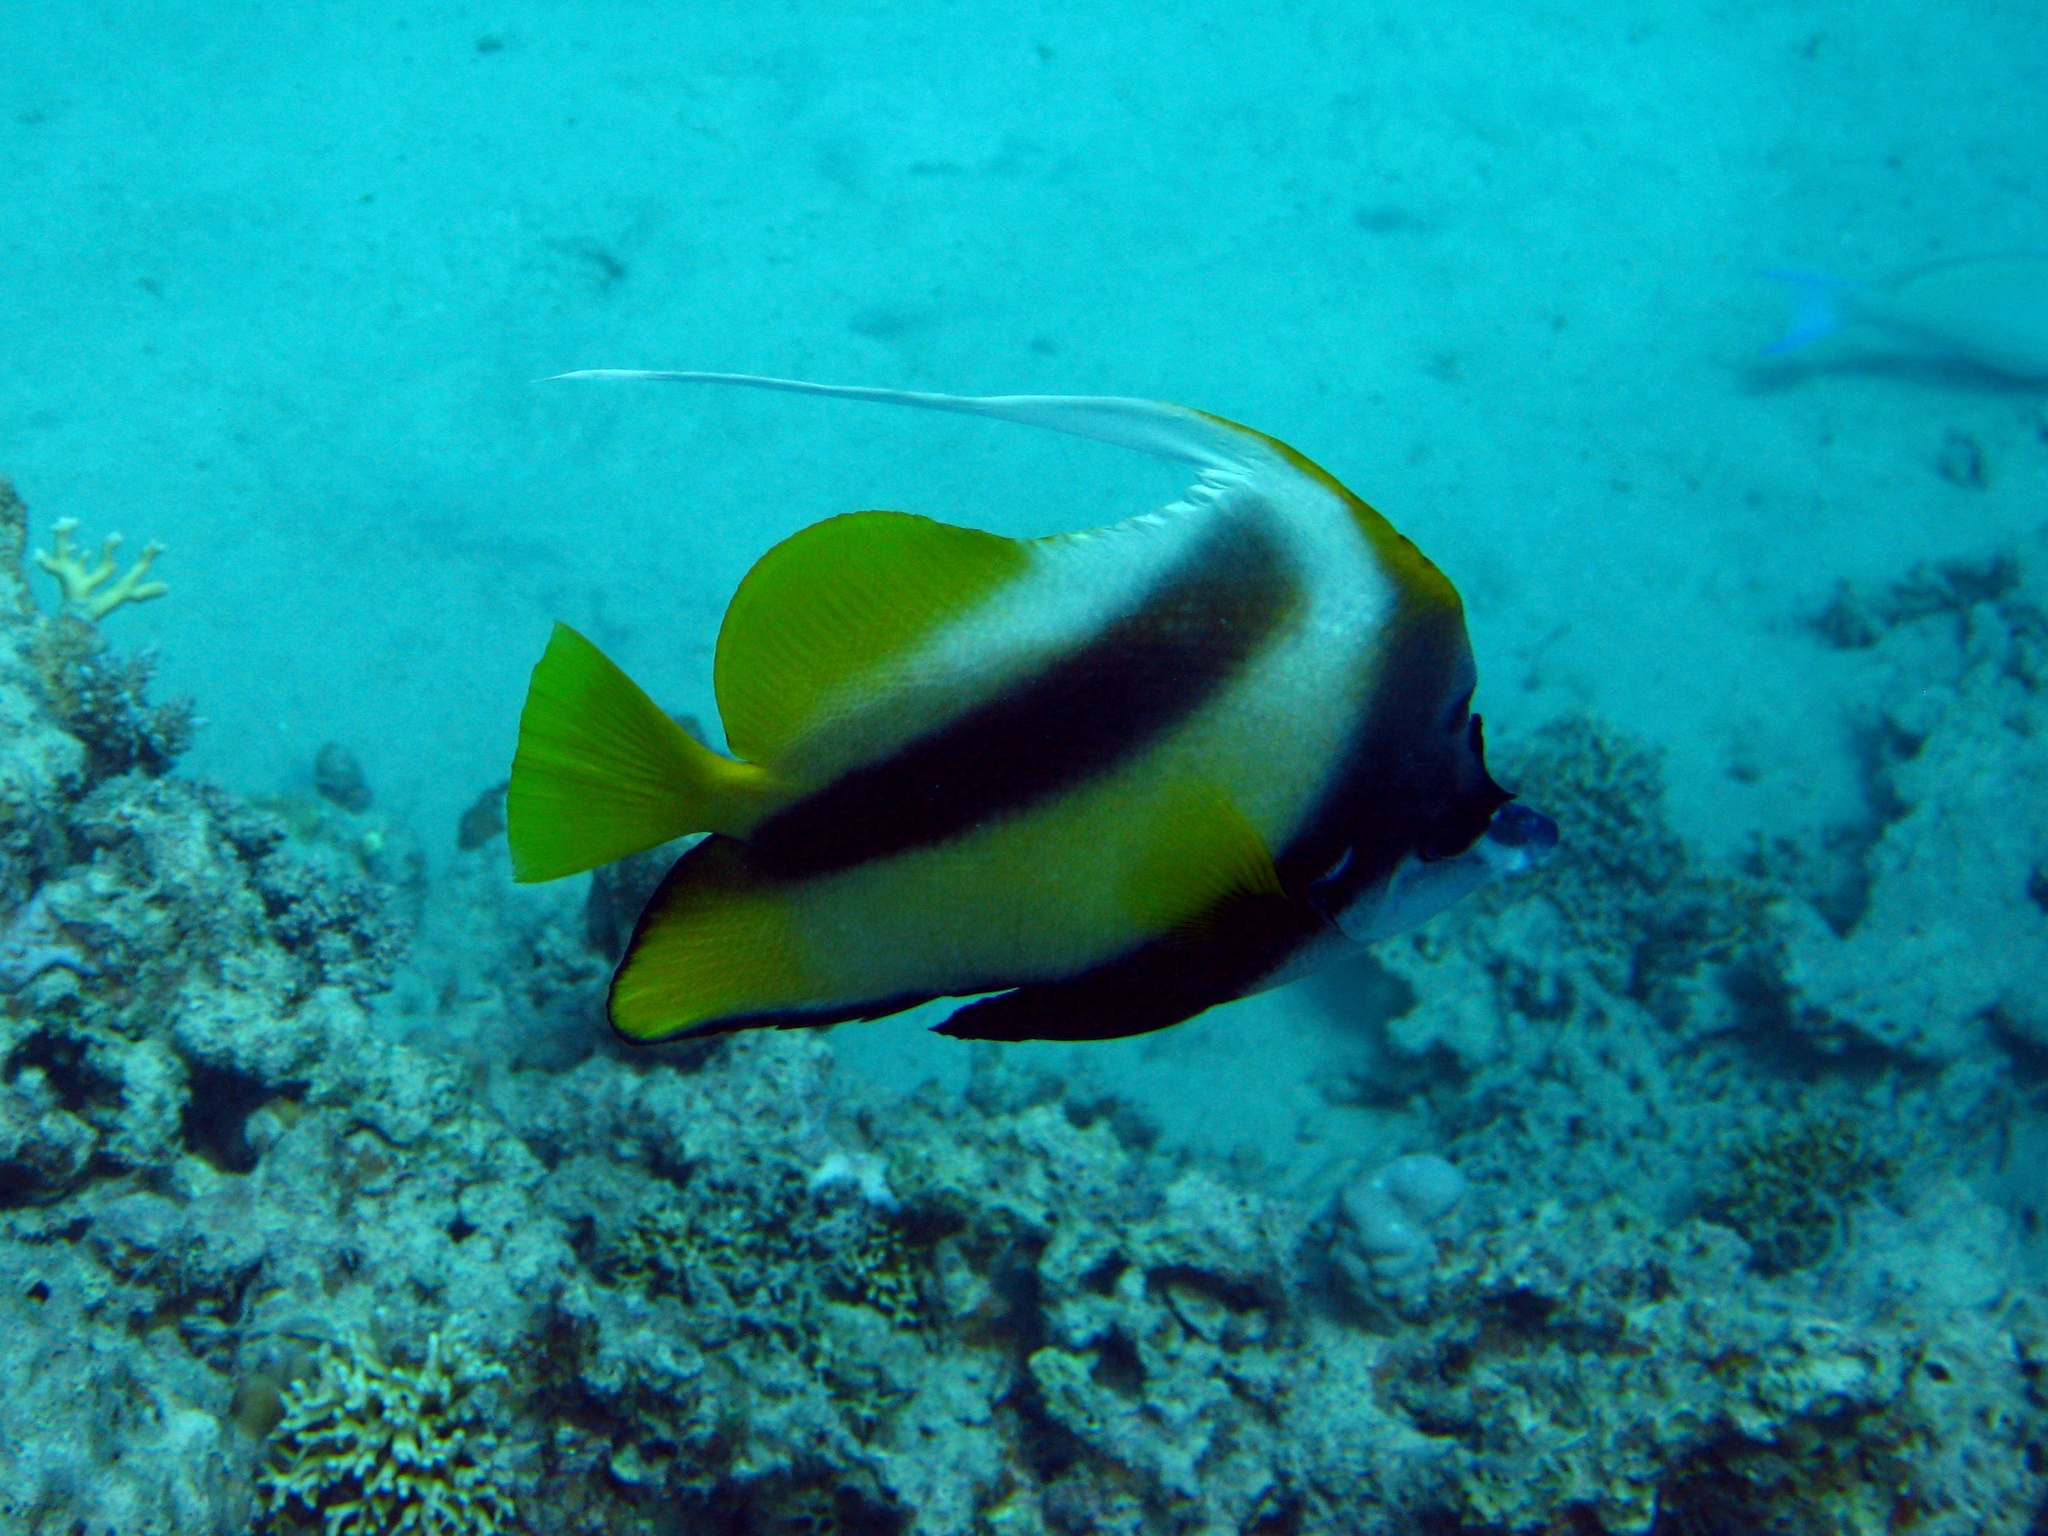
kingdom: Animalia
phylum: Chordata
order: Perciformes
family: Chaetodontidae
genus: Heniochus
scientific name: Heniochus intermedius
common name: Red sea bannerfish
